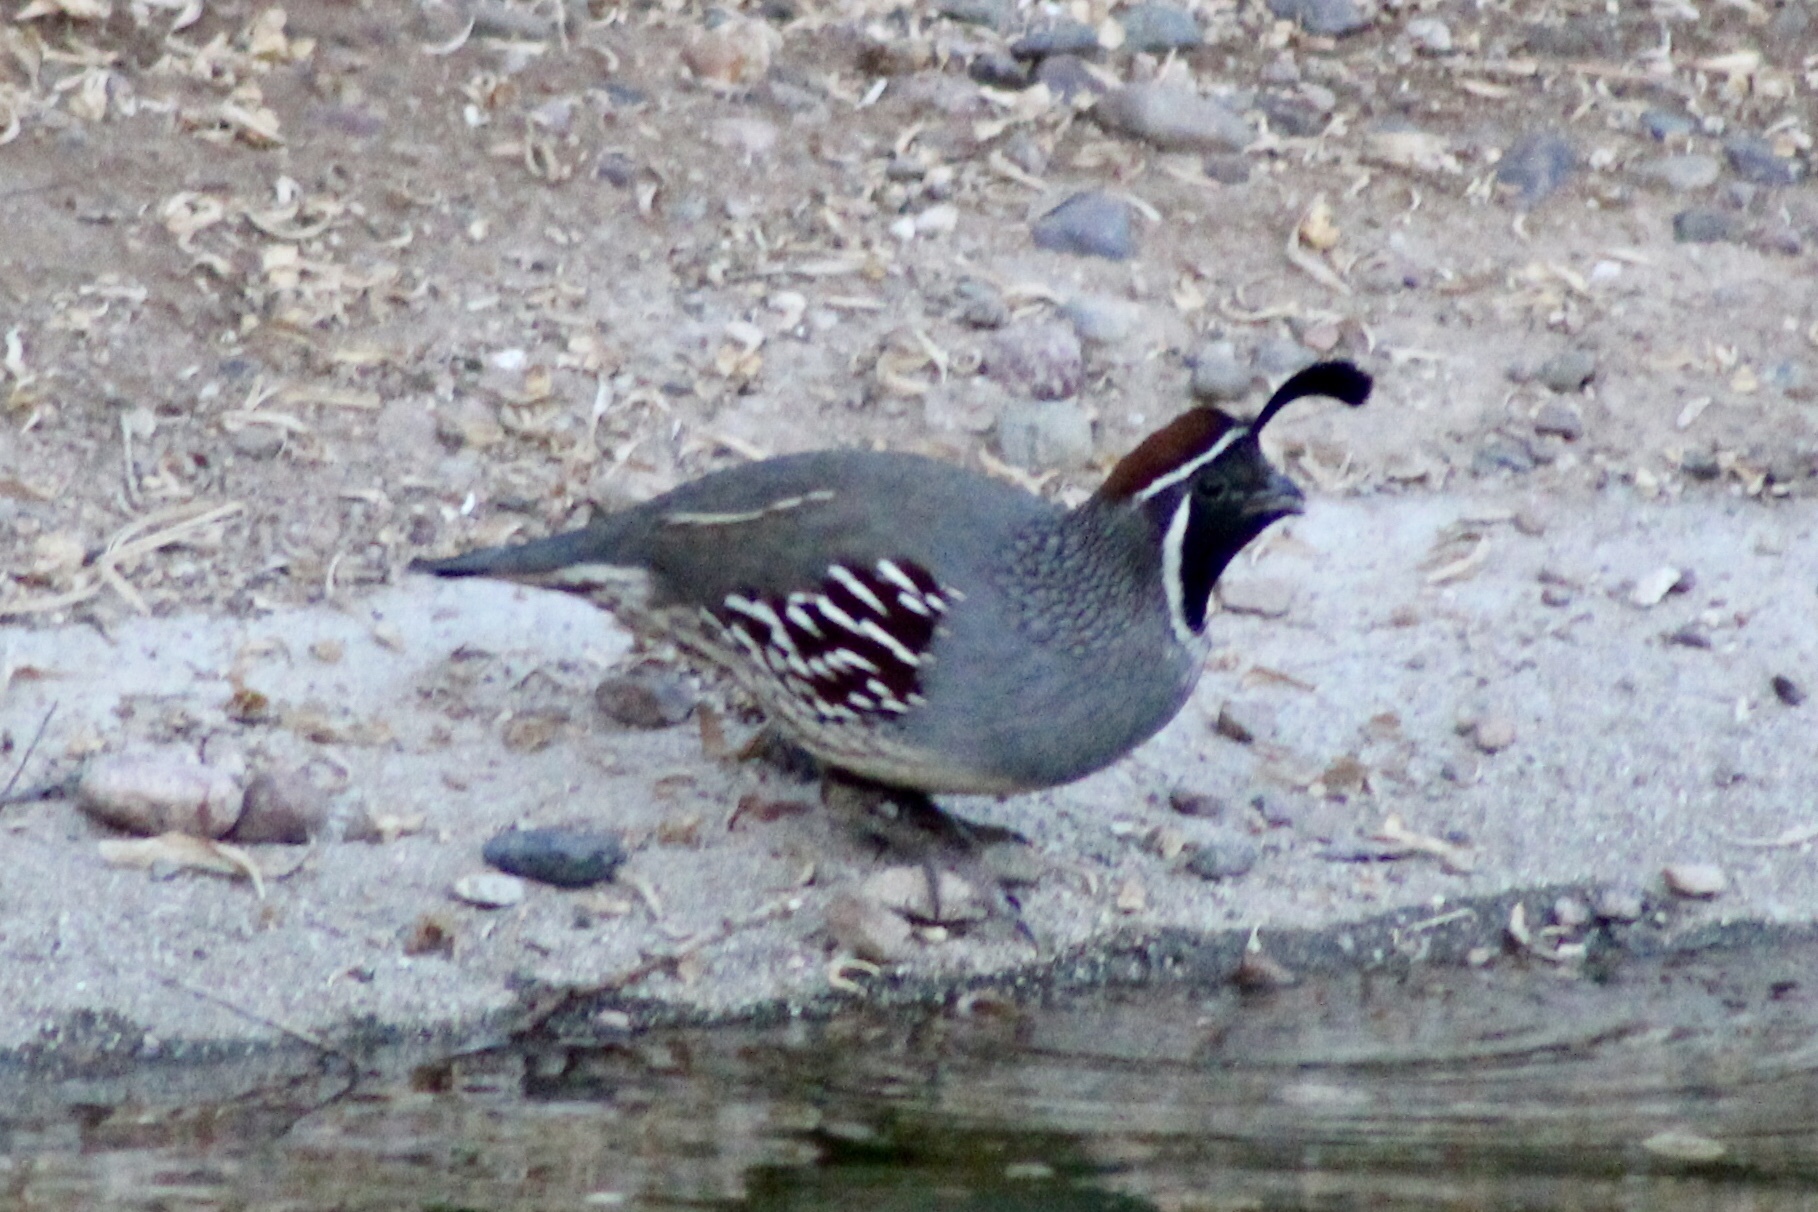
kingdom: Animalia
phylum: Chordata
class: Aves
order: Galliformes
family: Odontophoridae
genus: Callipepla
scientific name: Callipepla gambelii
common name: Gambel's quail
